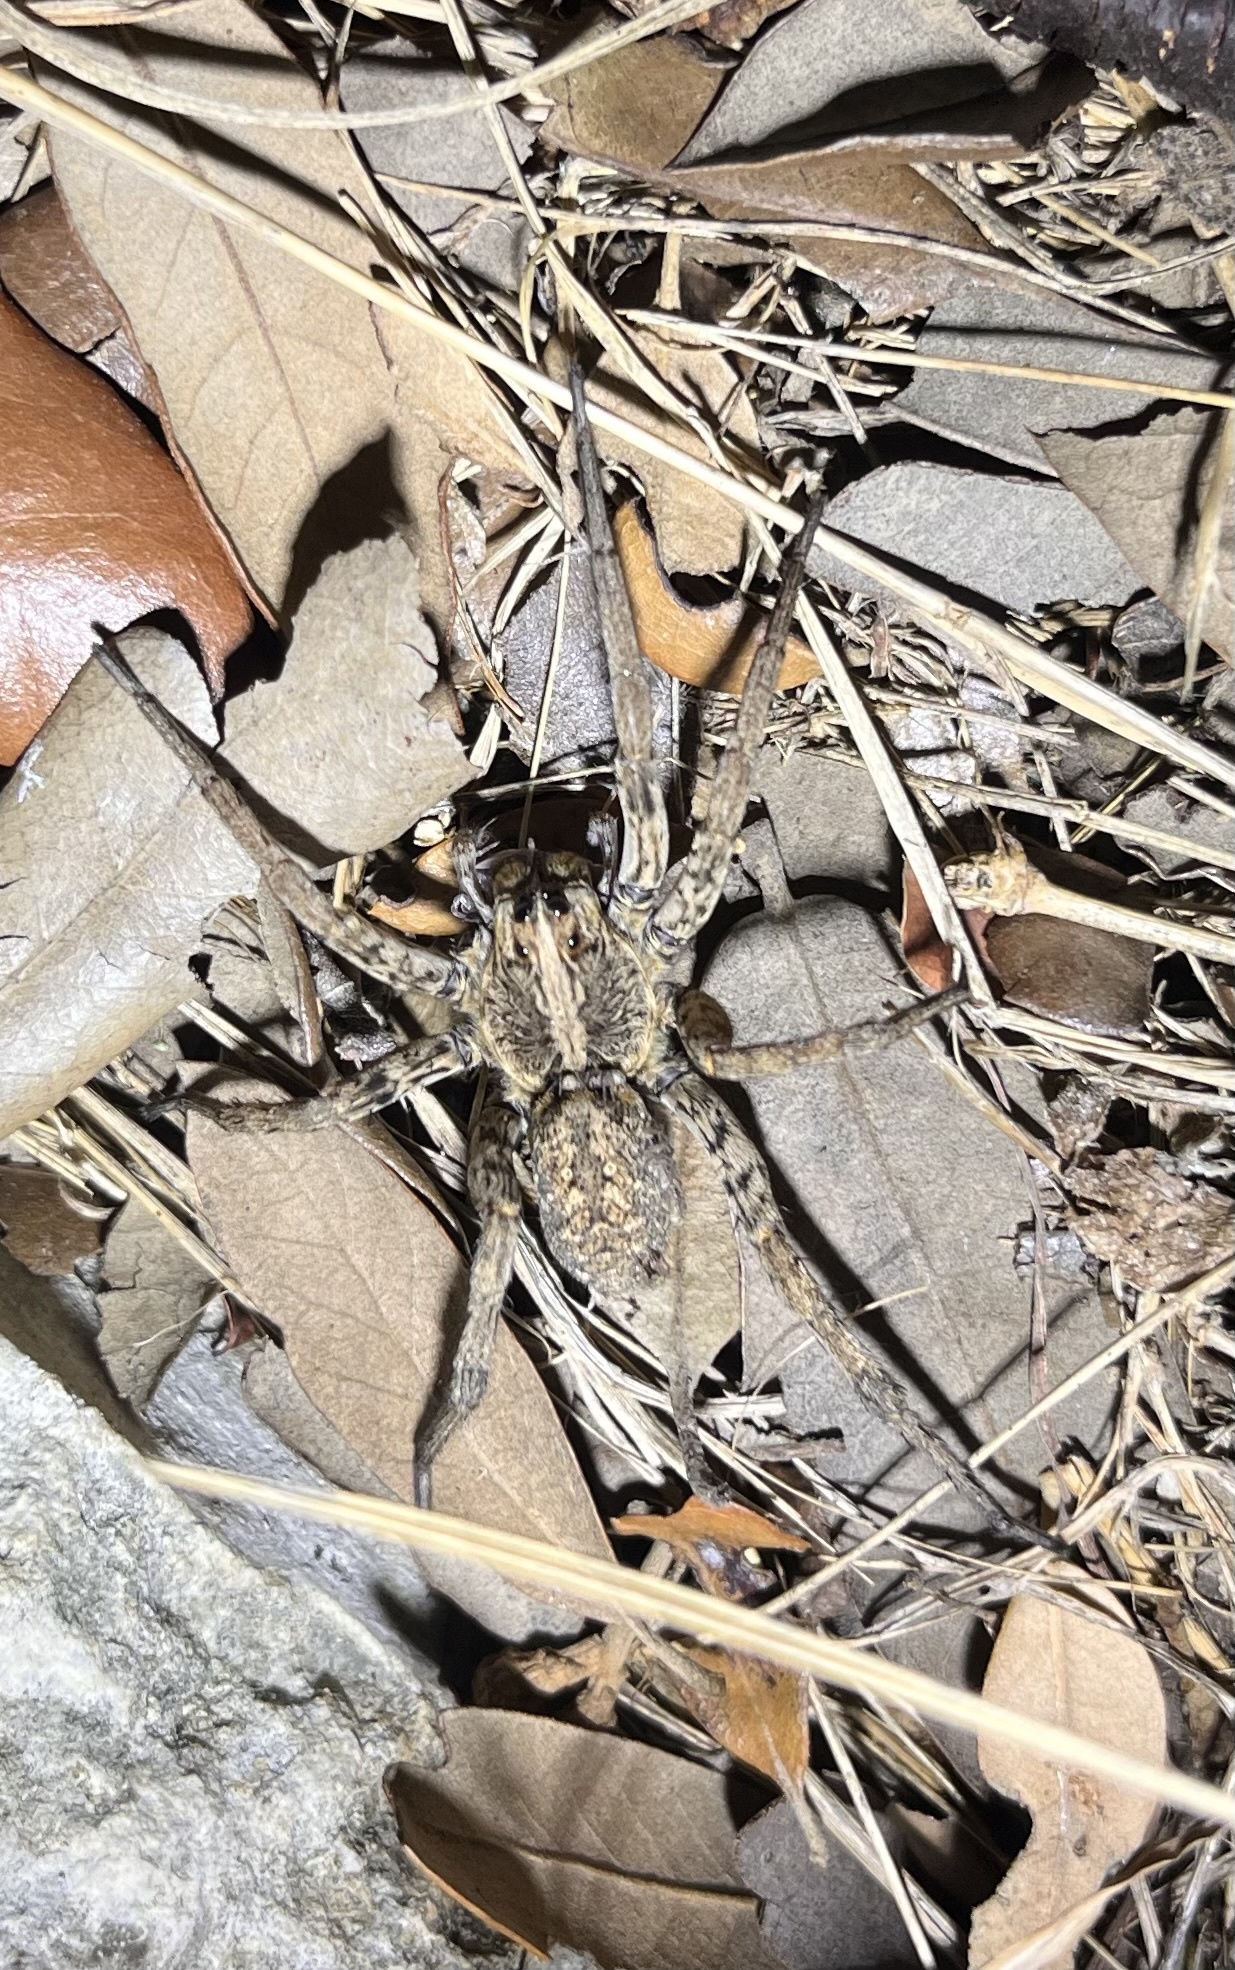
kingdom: Animalia
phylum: Arthropoda
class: Arachnida
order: Araneae
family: Lycosidae
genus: Hogna
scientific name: Hogna antelucana
